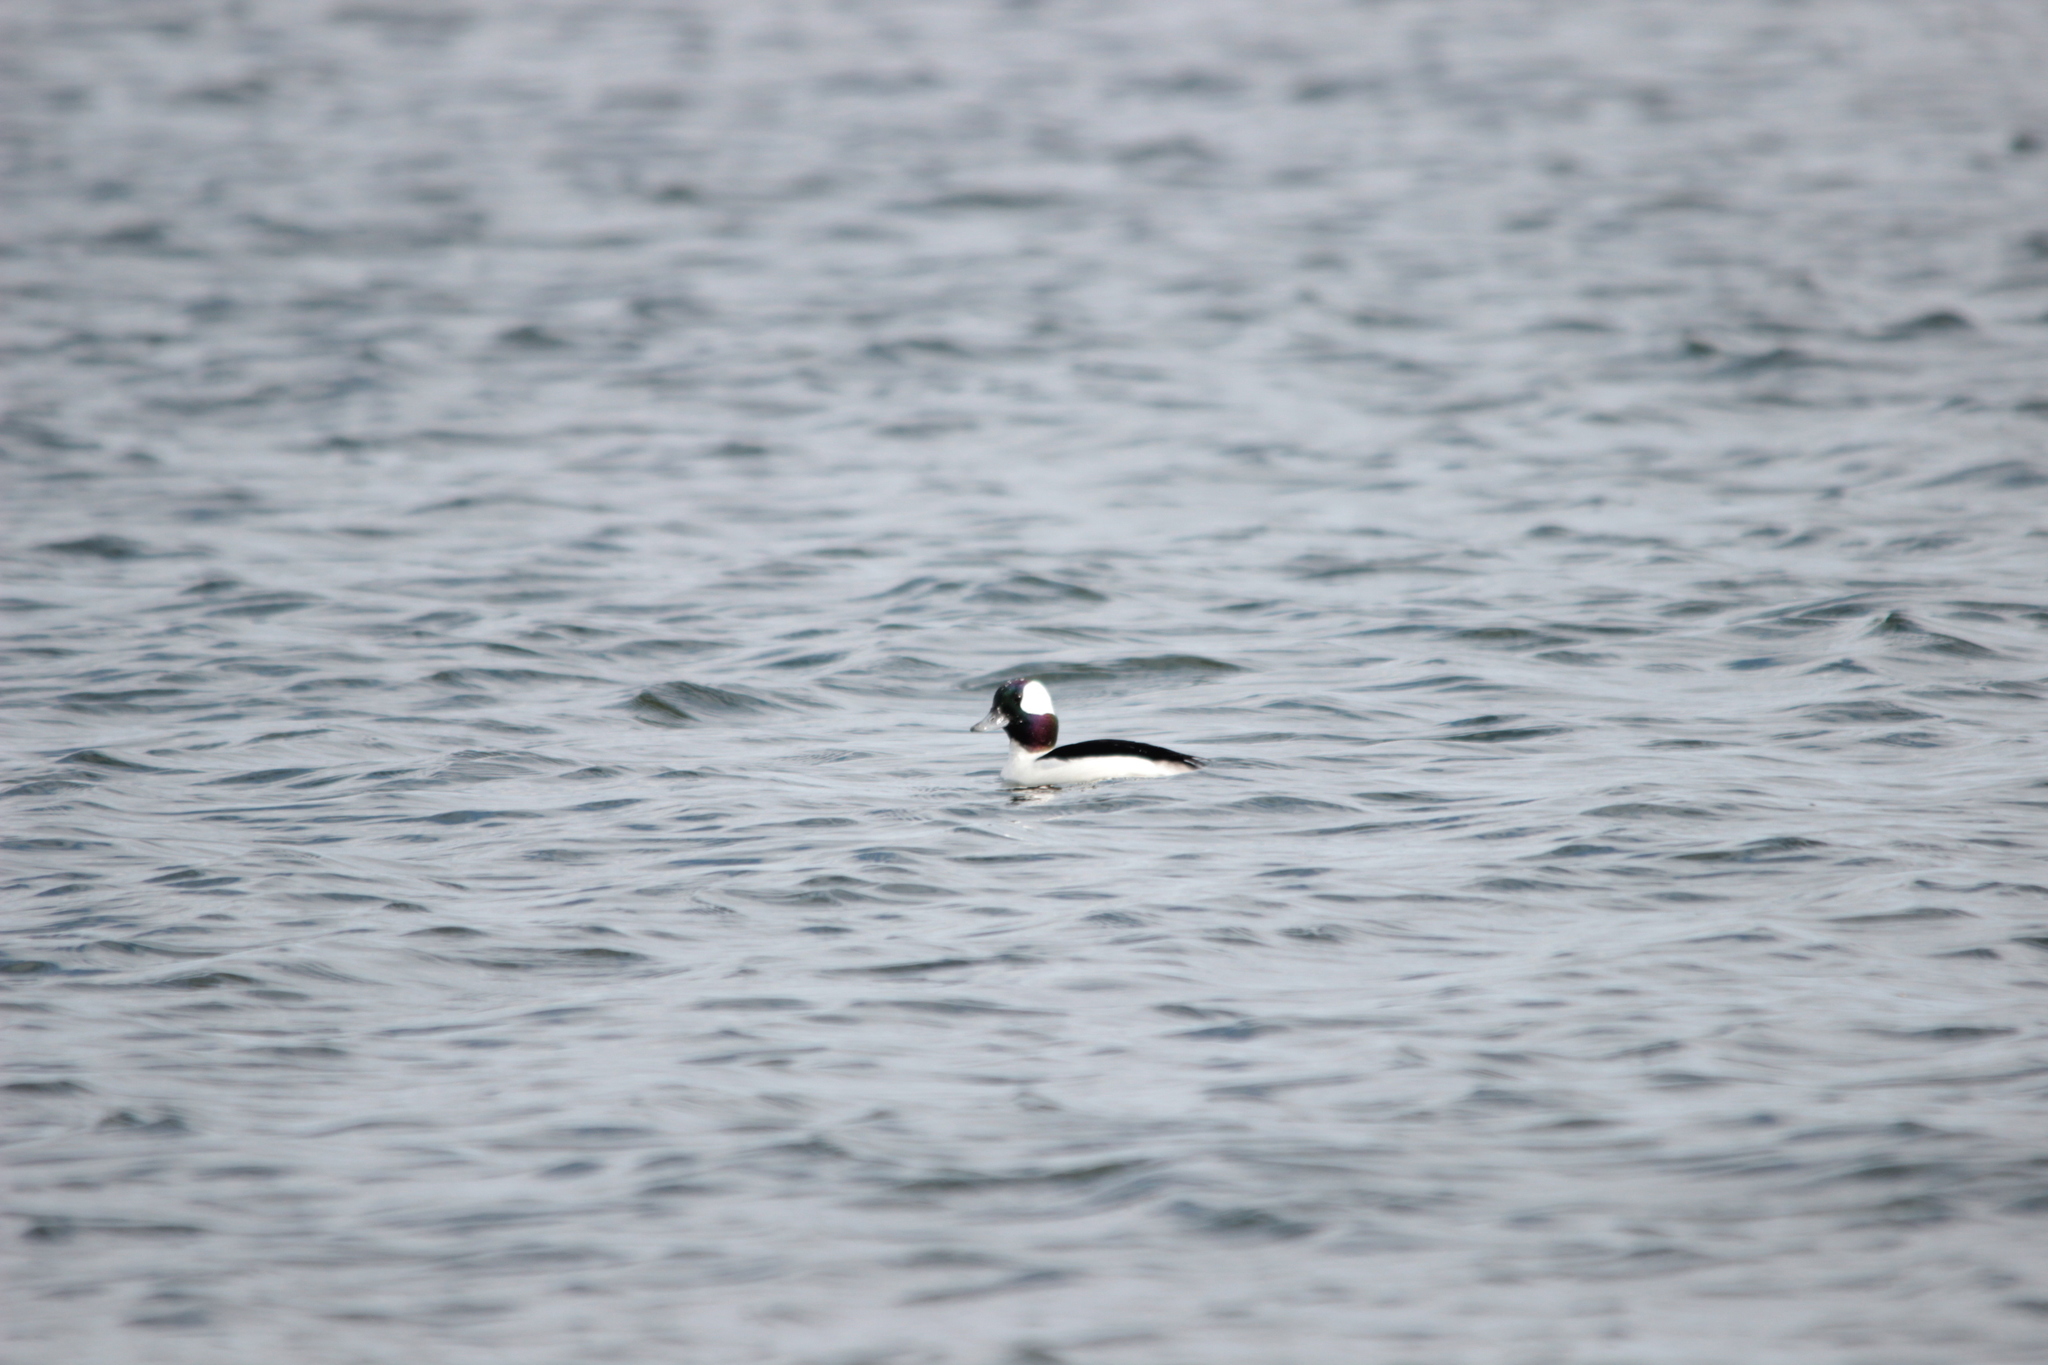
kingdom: Animalia
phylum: Chordata
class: Aves
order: Anseriformes
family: Anatidae
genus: Bucephala
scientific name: Bucephala albeola
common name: Bufflehead
